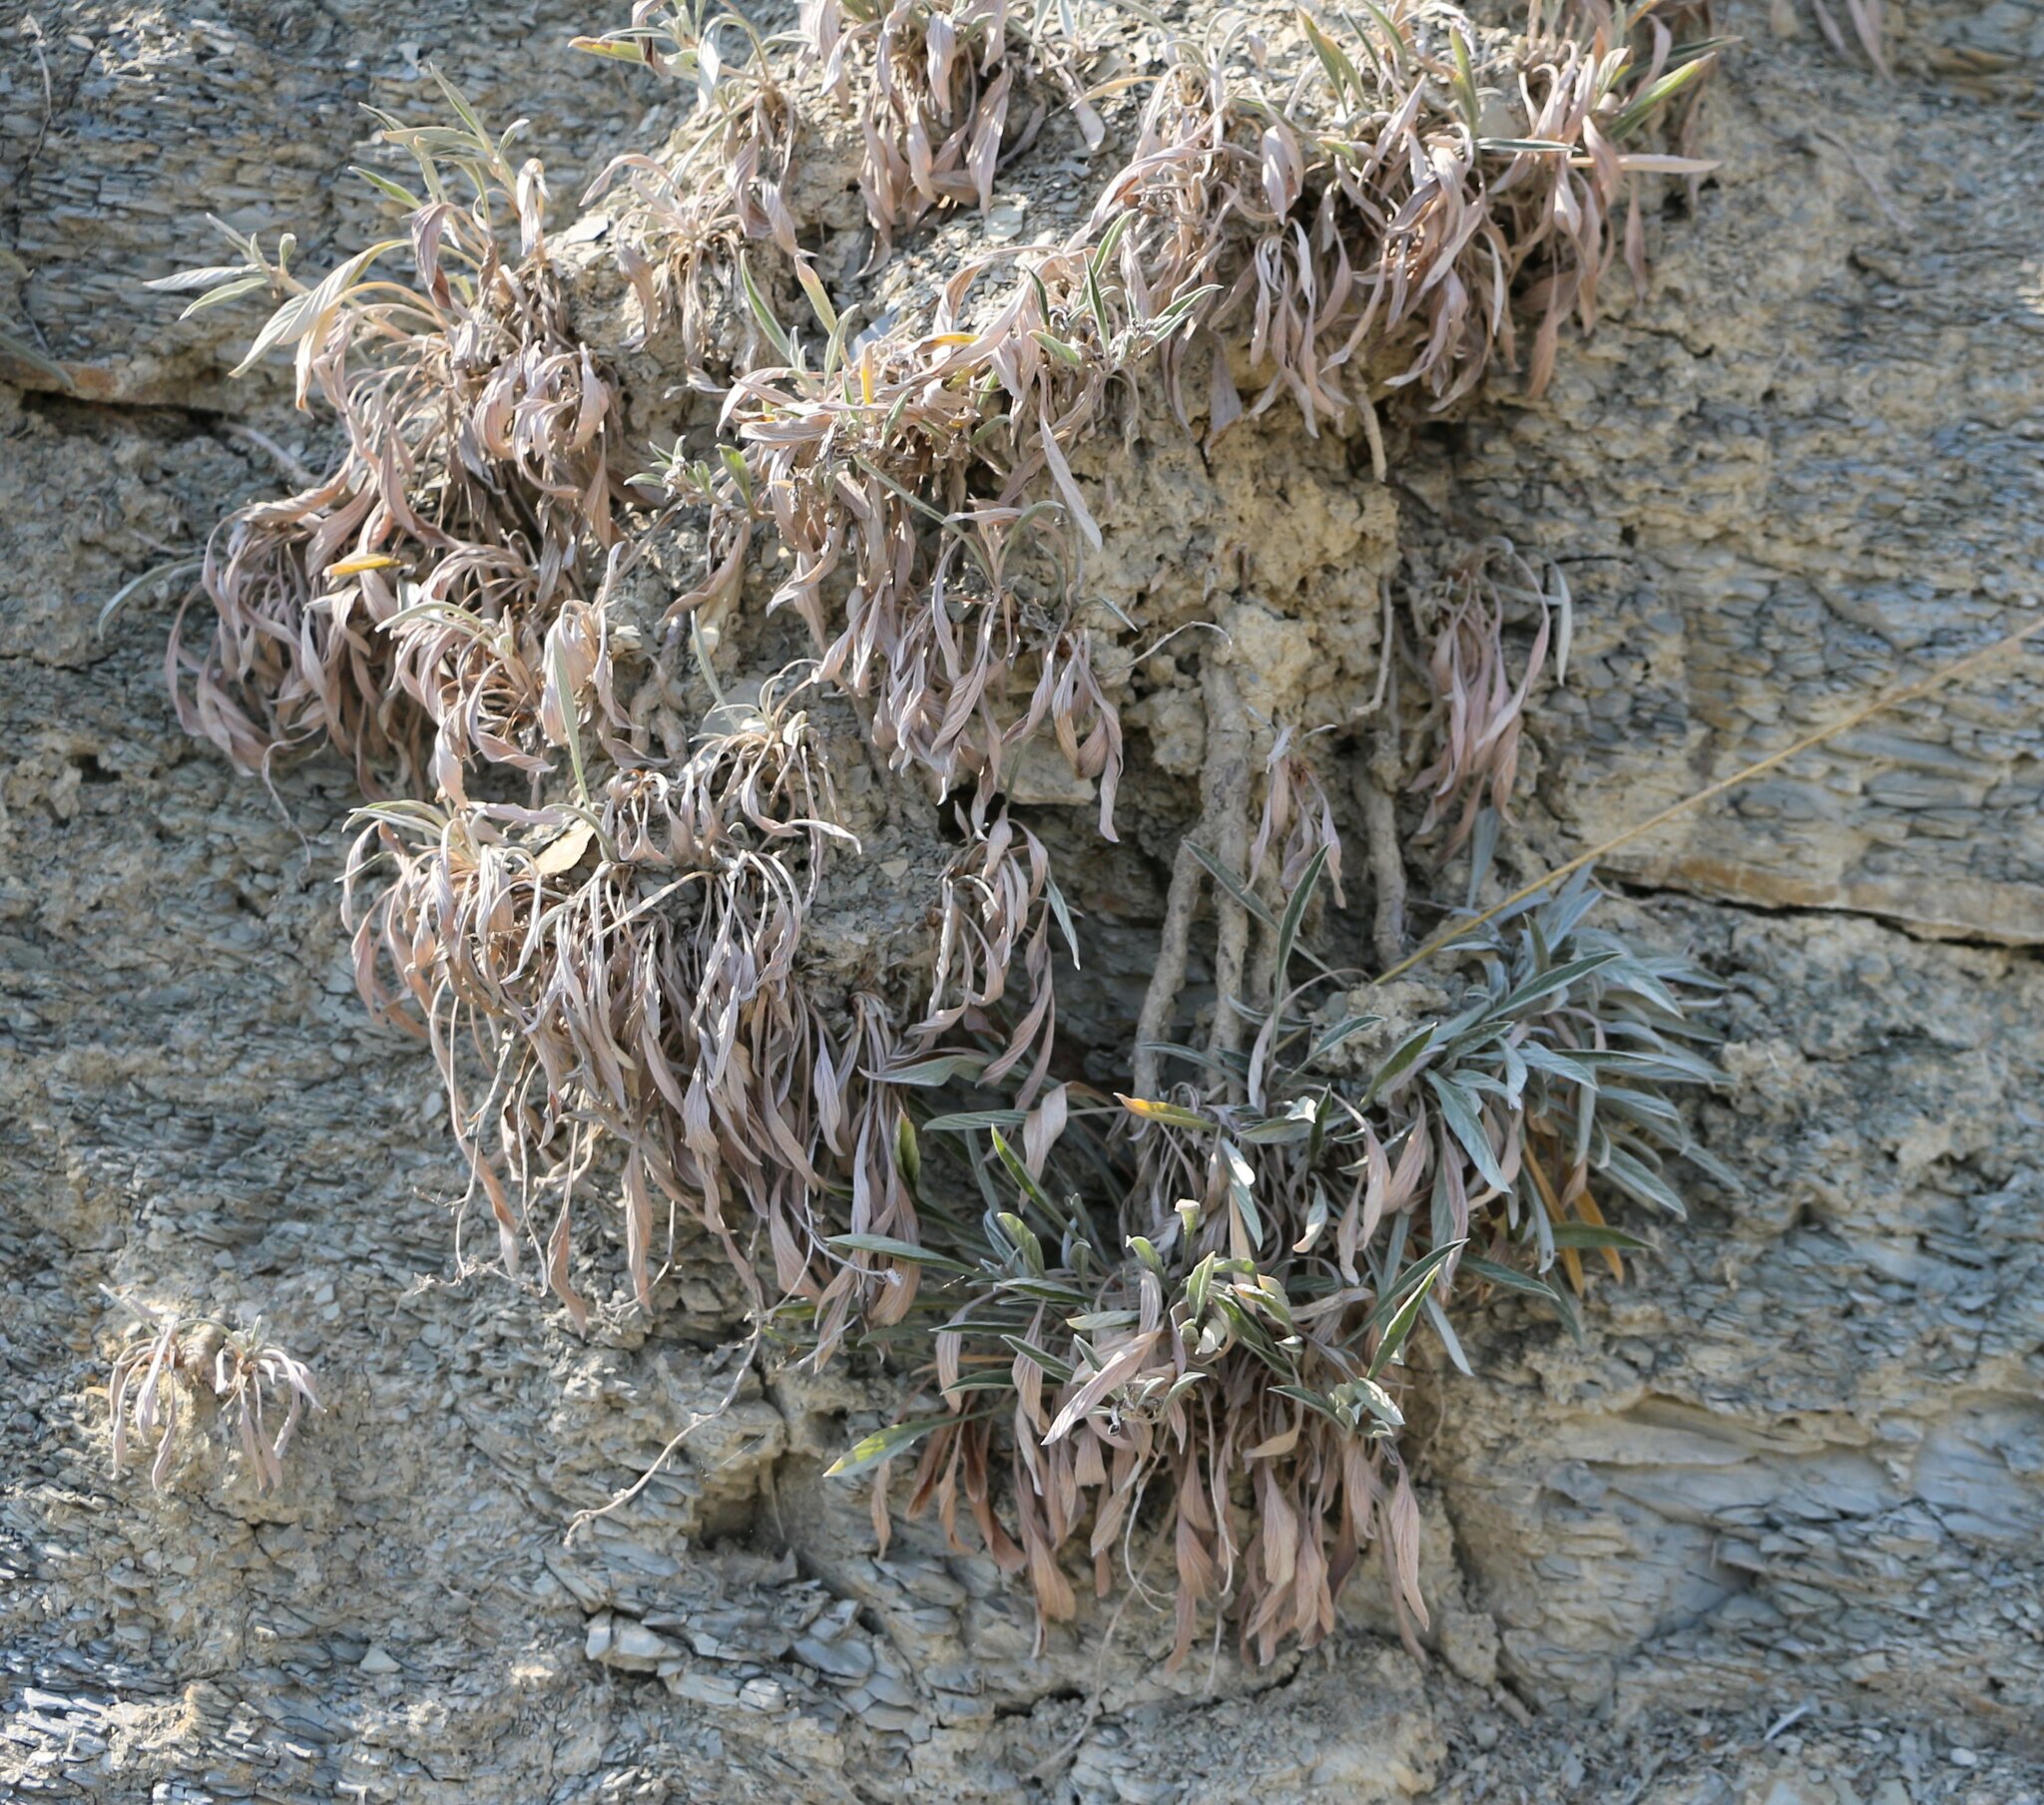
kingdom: Plantae
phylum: Tracheophyta
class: Magnoliopsida
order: Solanales
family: Convolvulaceae
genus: Convolvulus
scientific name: Convolvulus lineatus
